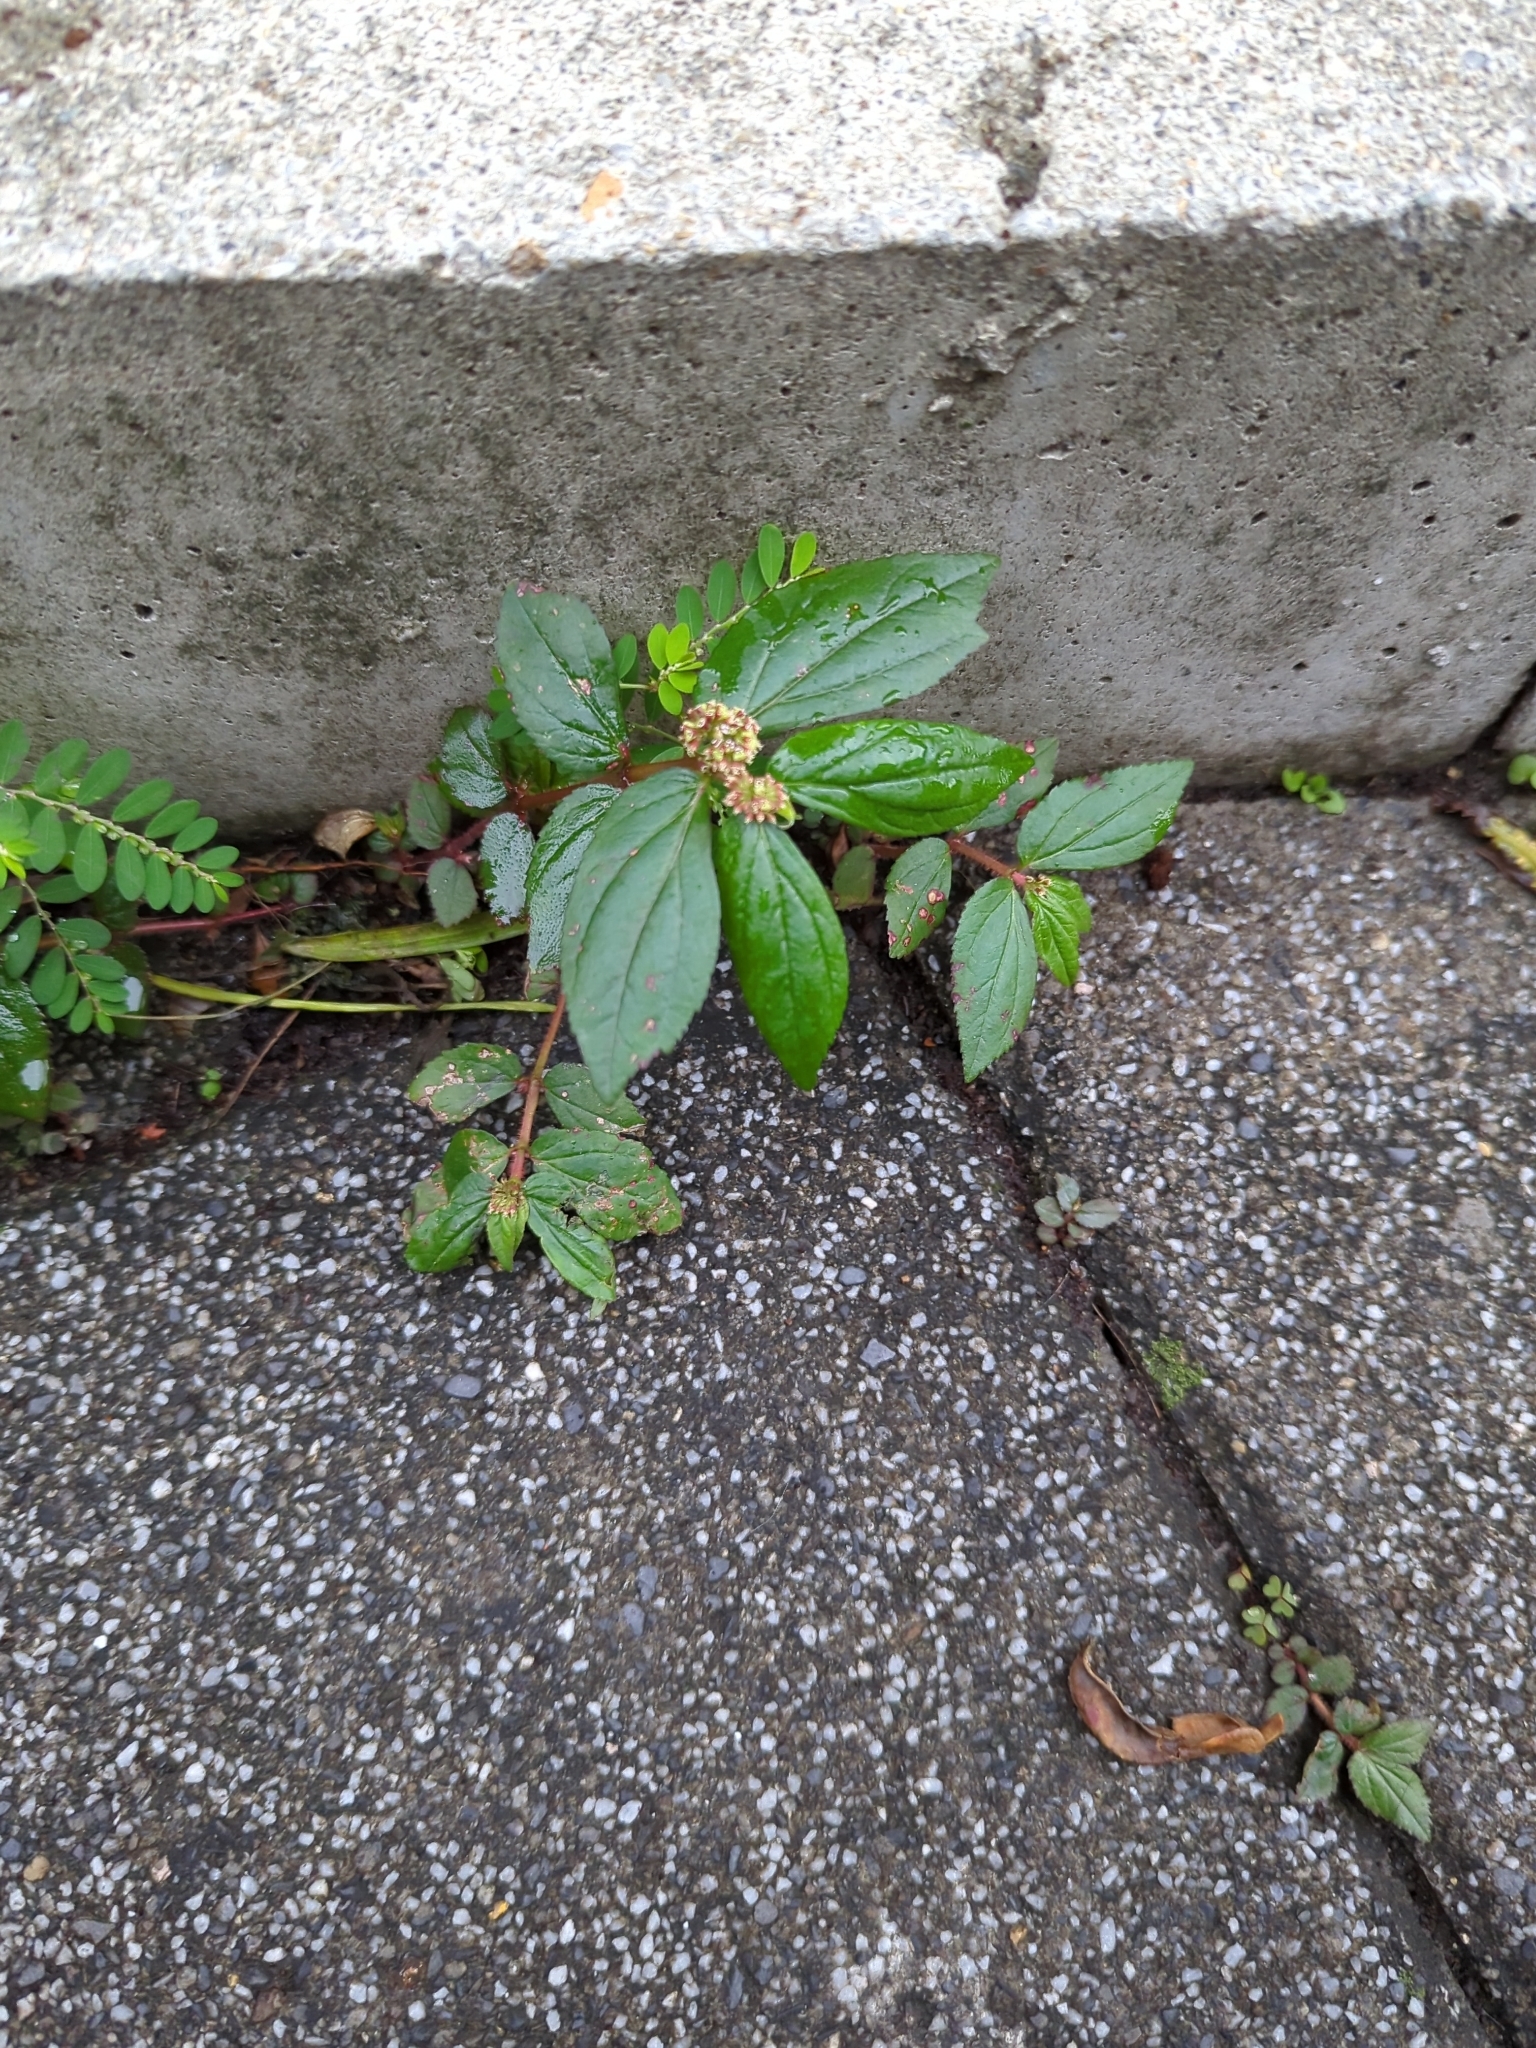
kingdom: Plantae
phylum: Tracheophyta
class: Magnoliopsida
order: Malpighiales
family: Euphorbiaceae
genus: Euphorbia
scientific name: Euphorbia hirta
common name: Pillpod sandmat
